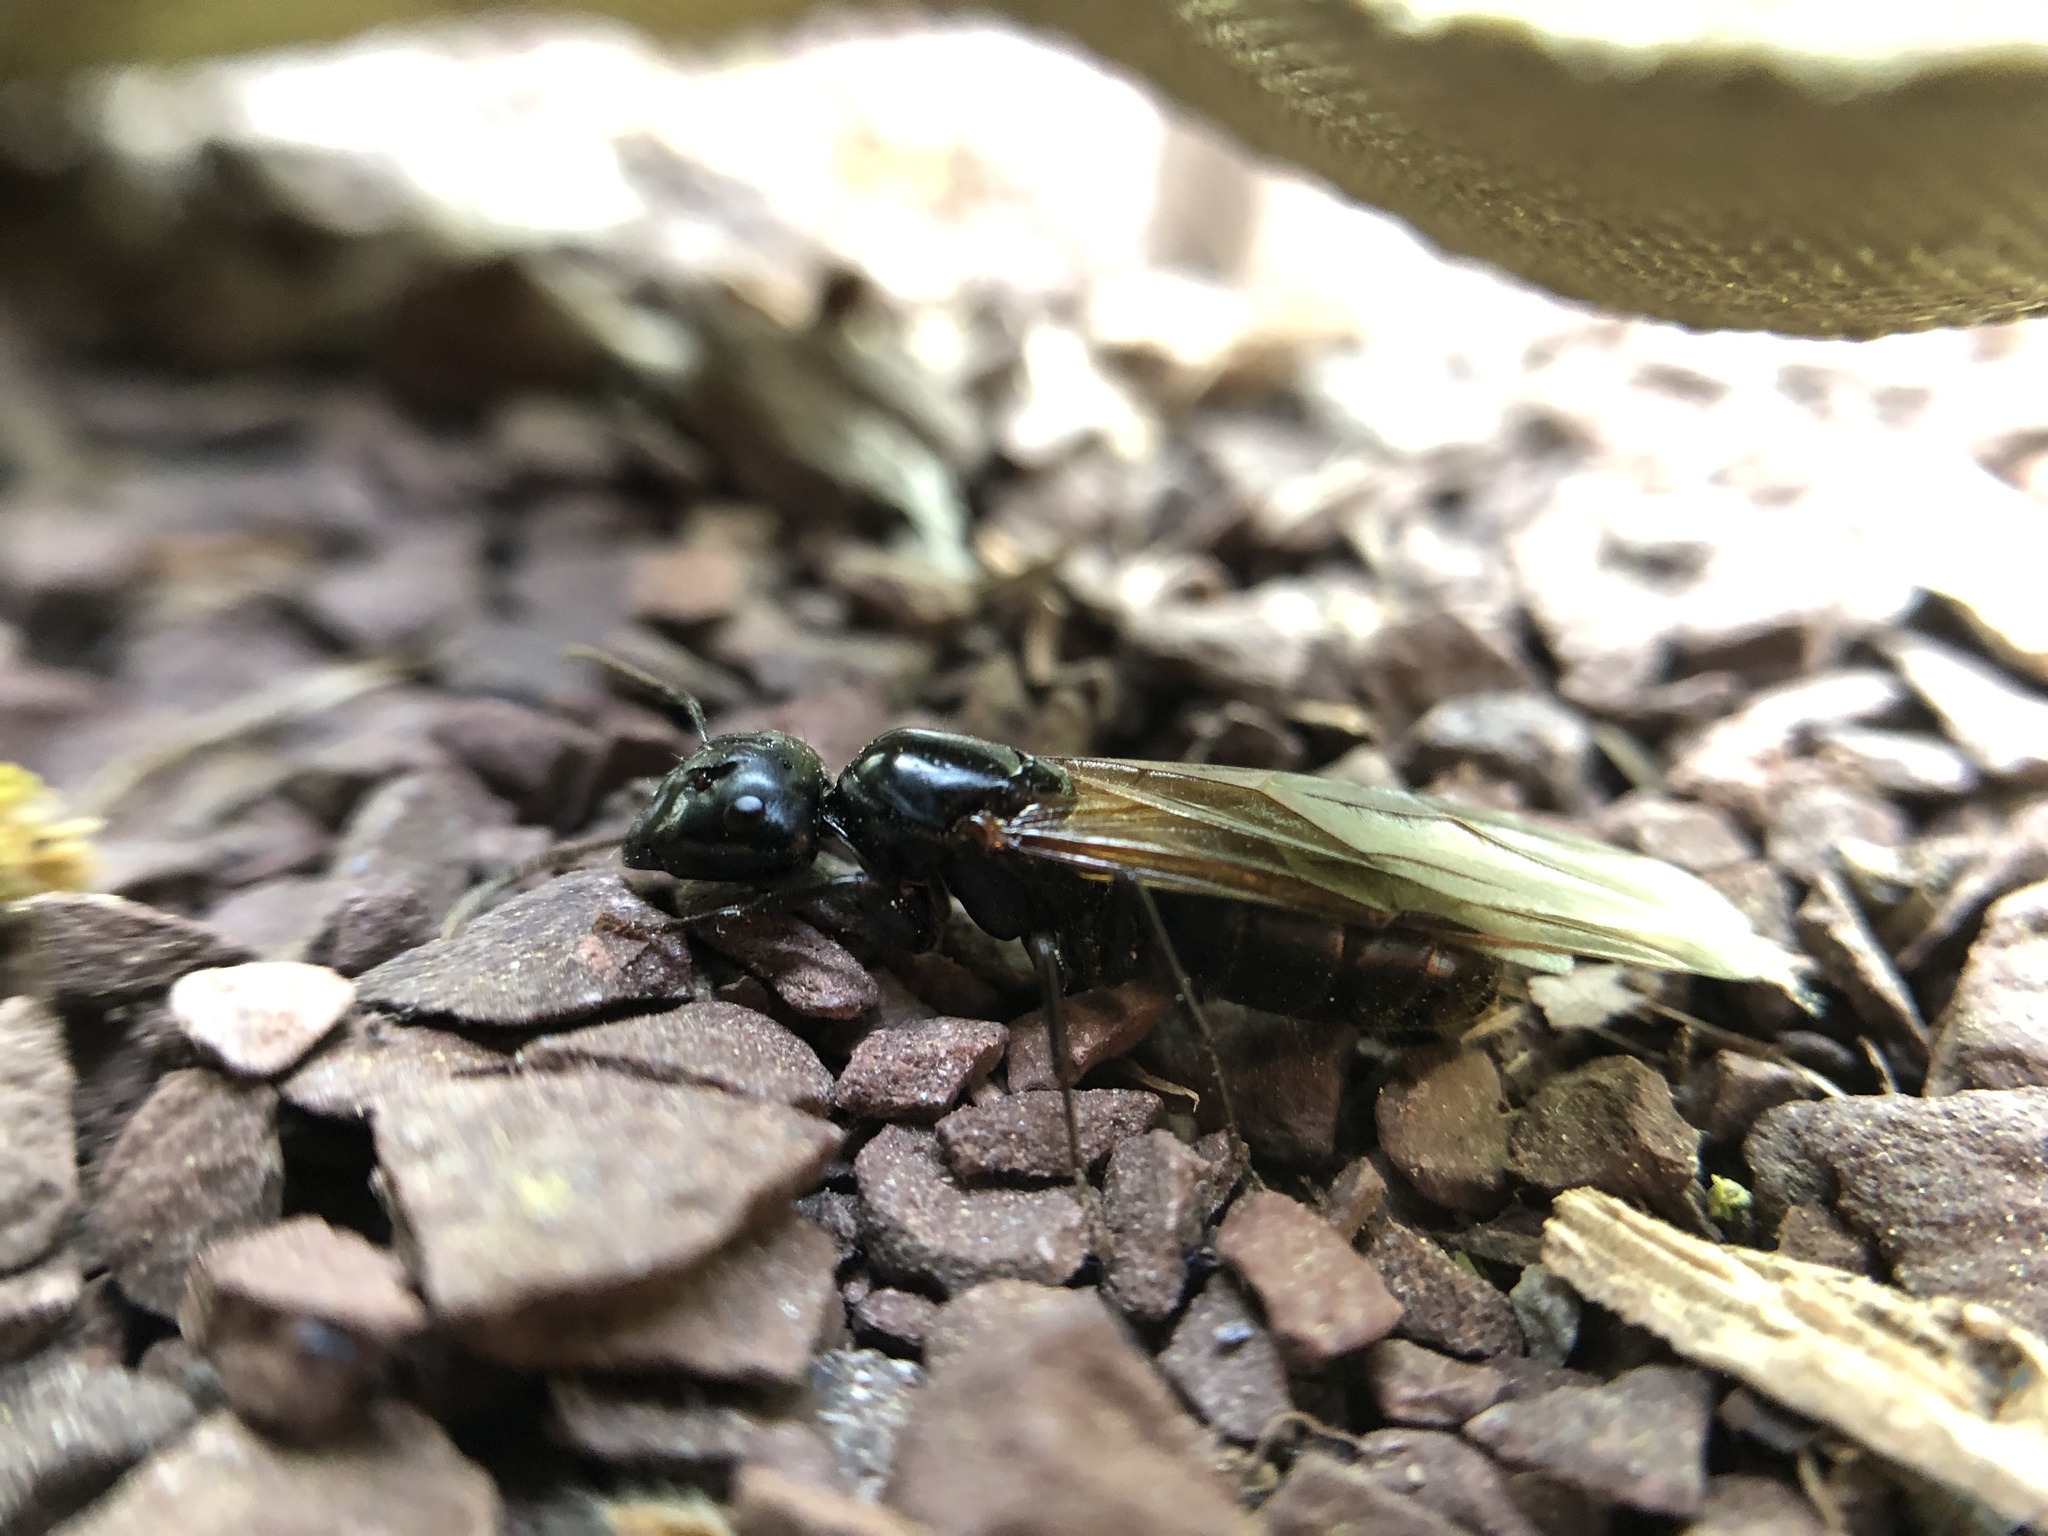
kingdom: Animalia
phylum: Arthropoda
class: Insecta
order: Hymenoptera
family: Formicidae
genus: Camponotus
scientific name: Camponotus pennsylvanicus
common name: Black carpenter ant
